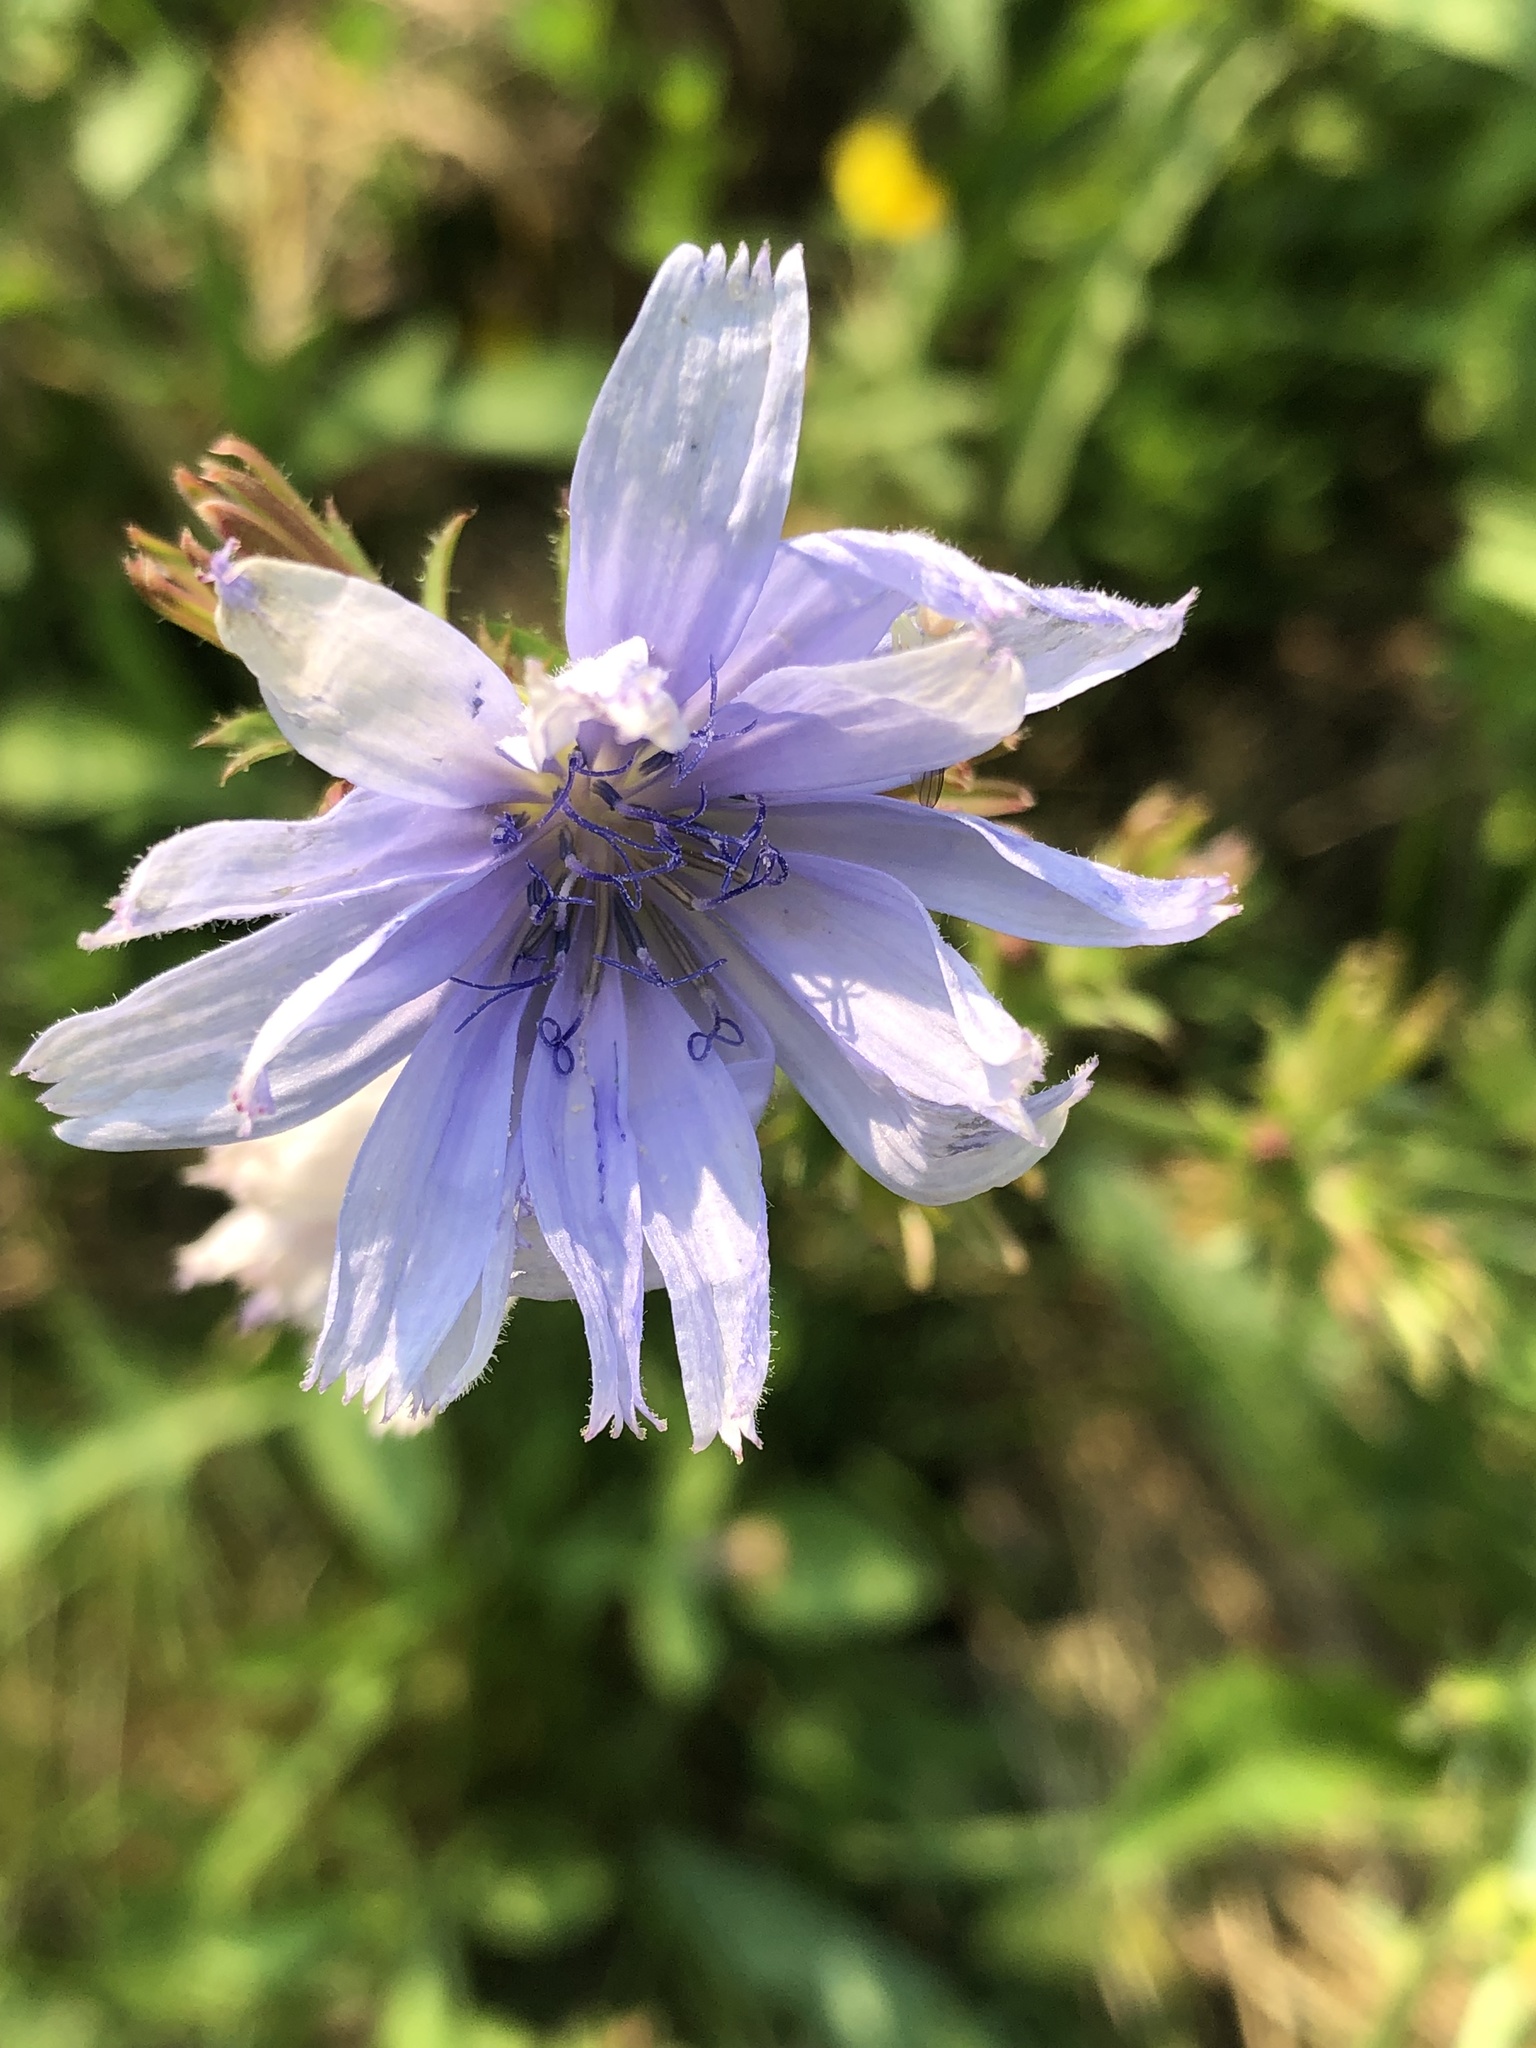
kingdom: Plantae
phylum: Tracheophyta
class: Magnoliopsida
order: Asterales
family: Asteraceae
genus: Cichorium
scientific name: Cichorium intybus
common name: Chicory
